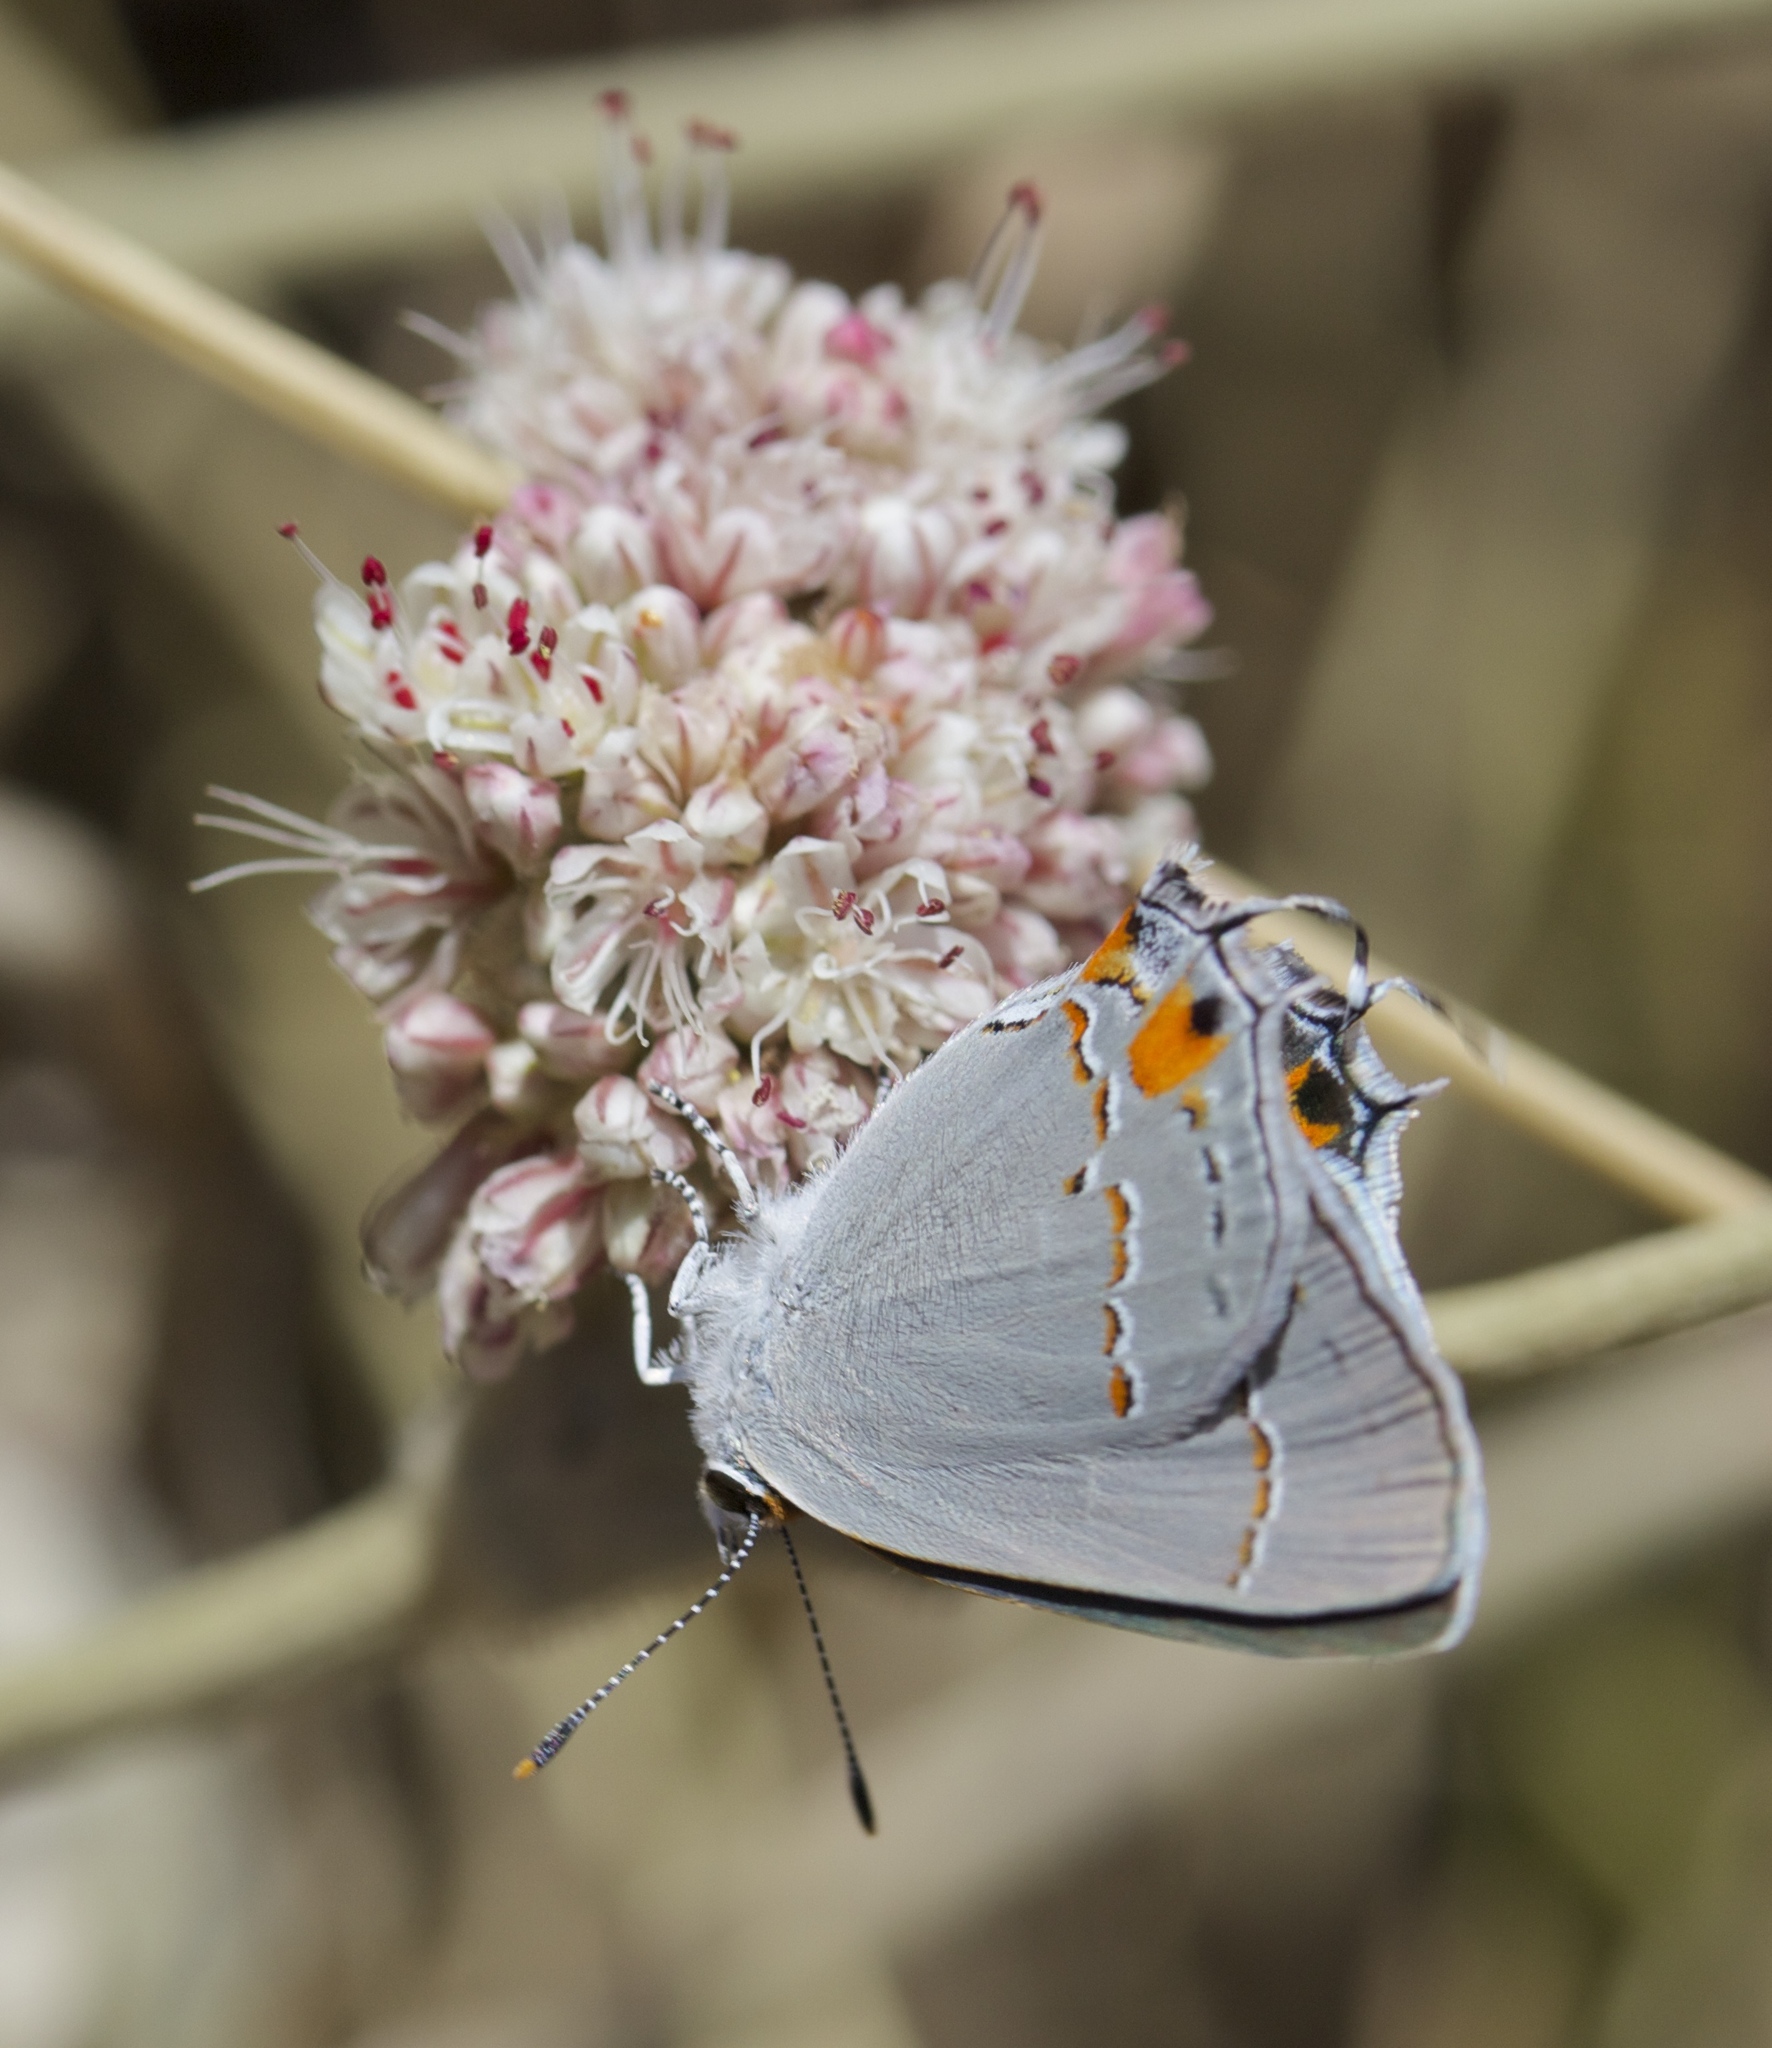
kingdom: Animalia
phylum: Arthropoda
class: Insecta
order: Lepidoptera
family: Lycaenidae
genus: Strymon
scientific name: Strymon melinus
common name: Gray hairstreak
